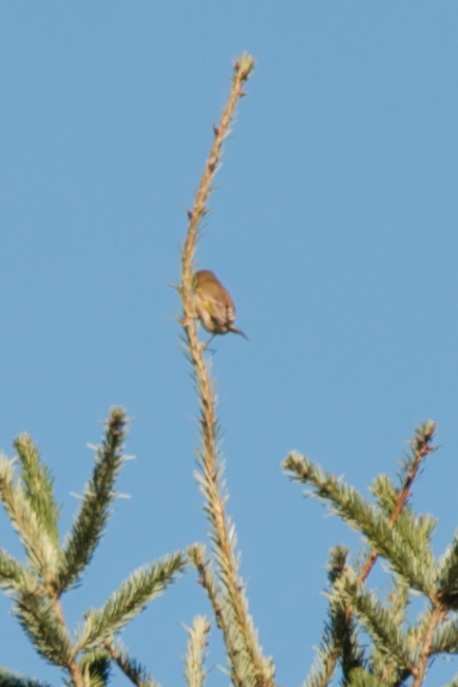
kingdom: Plantae
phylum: Tracheophyta
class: Liliopsida
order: Poales
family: Poaceae
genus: Chloris
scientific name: Chloris chloris
